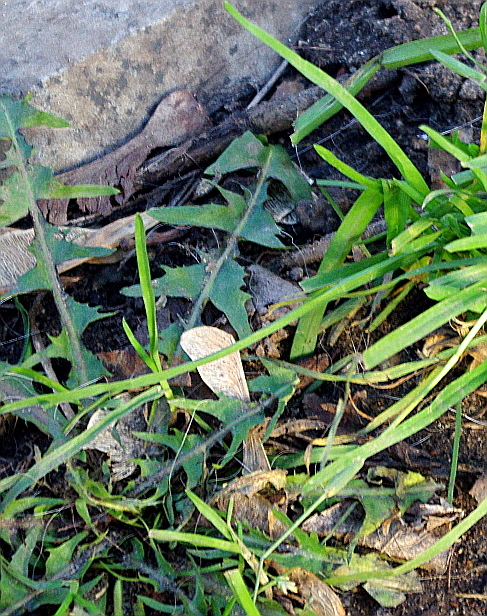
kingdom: Plantae
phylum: Tracheophyta
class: Magnoliopsida
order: Asterales
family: Asteraceae
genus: Taraxacum
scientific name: Taraxacum officinale
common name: Common dandelion
